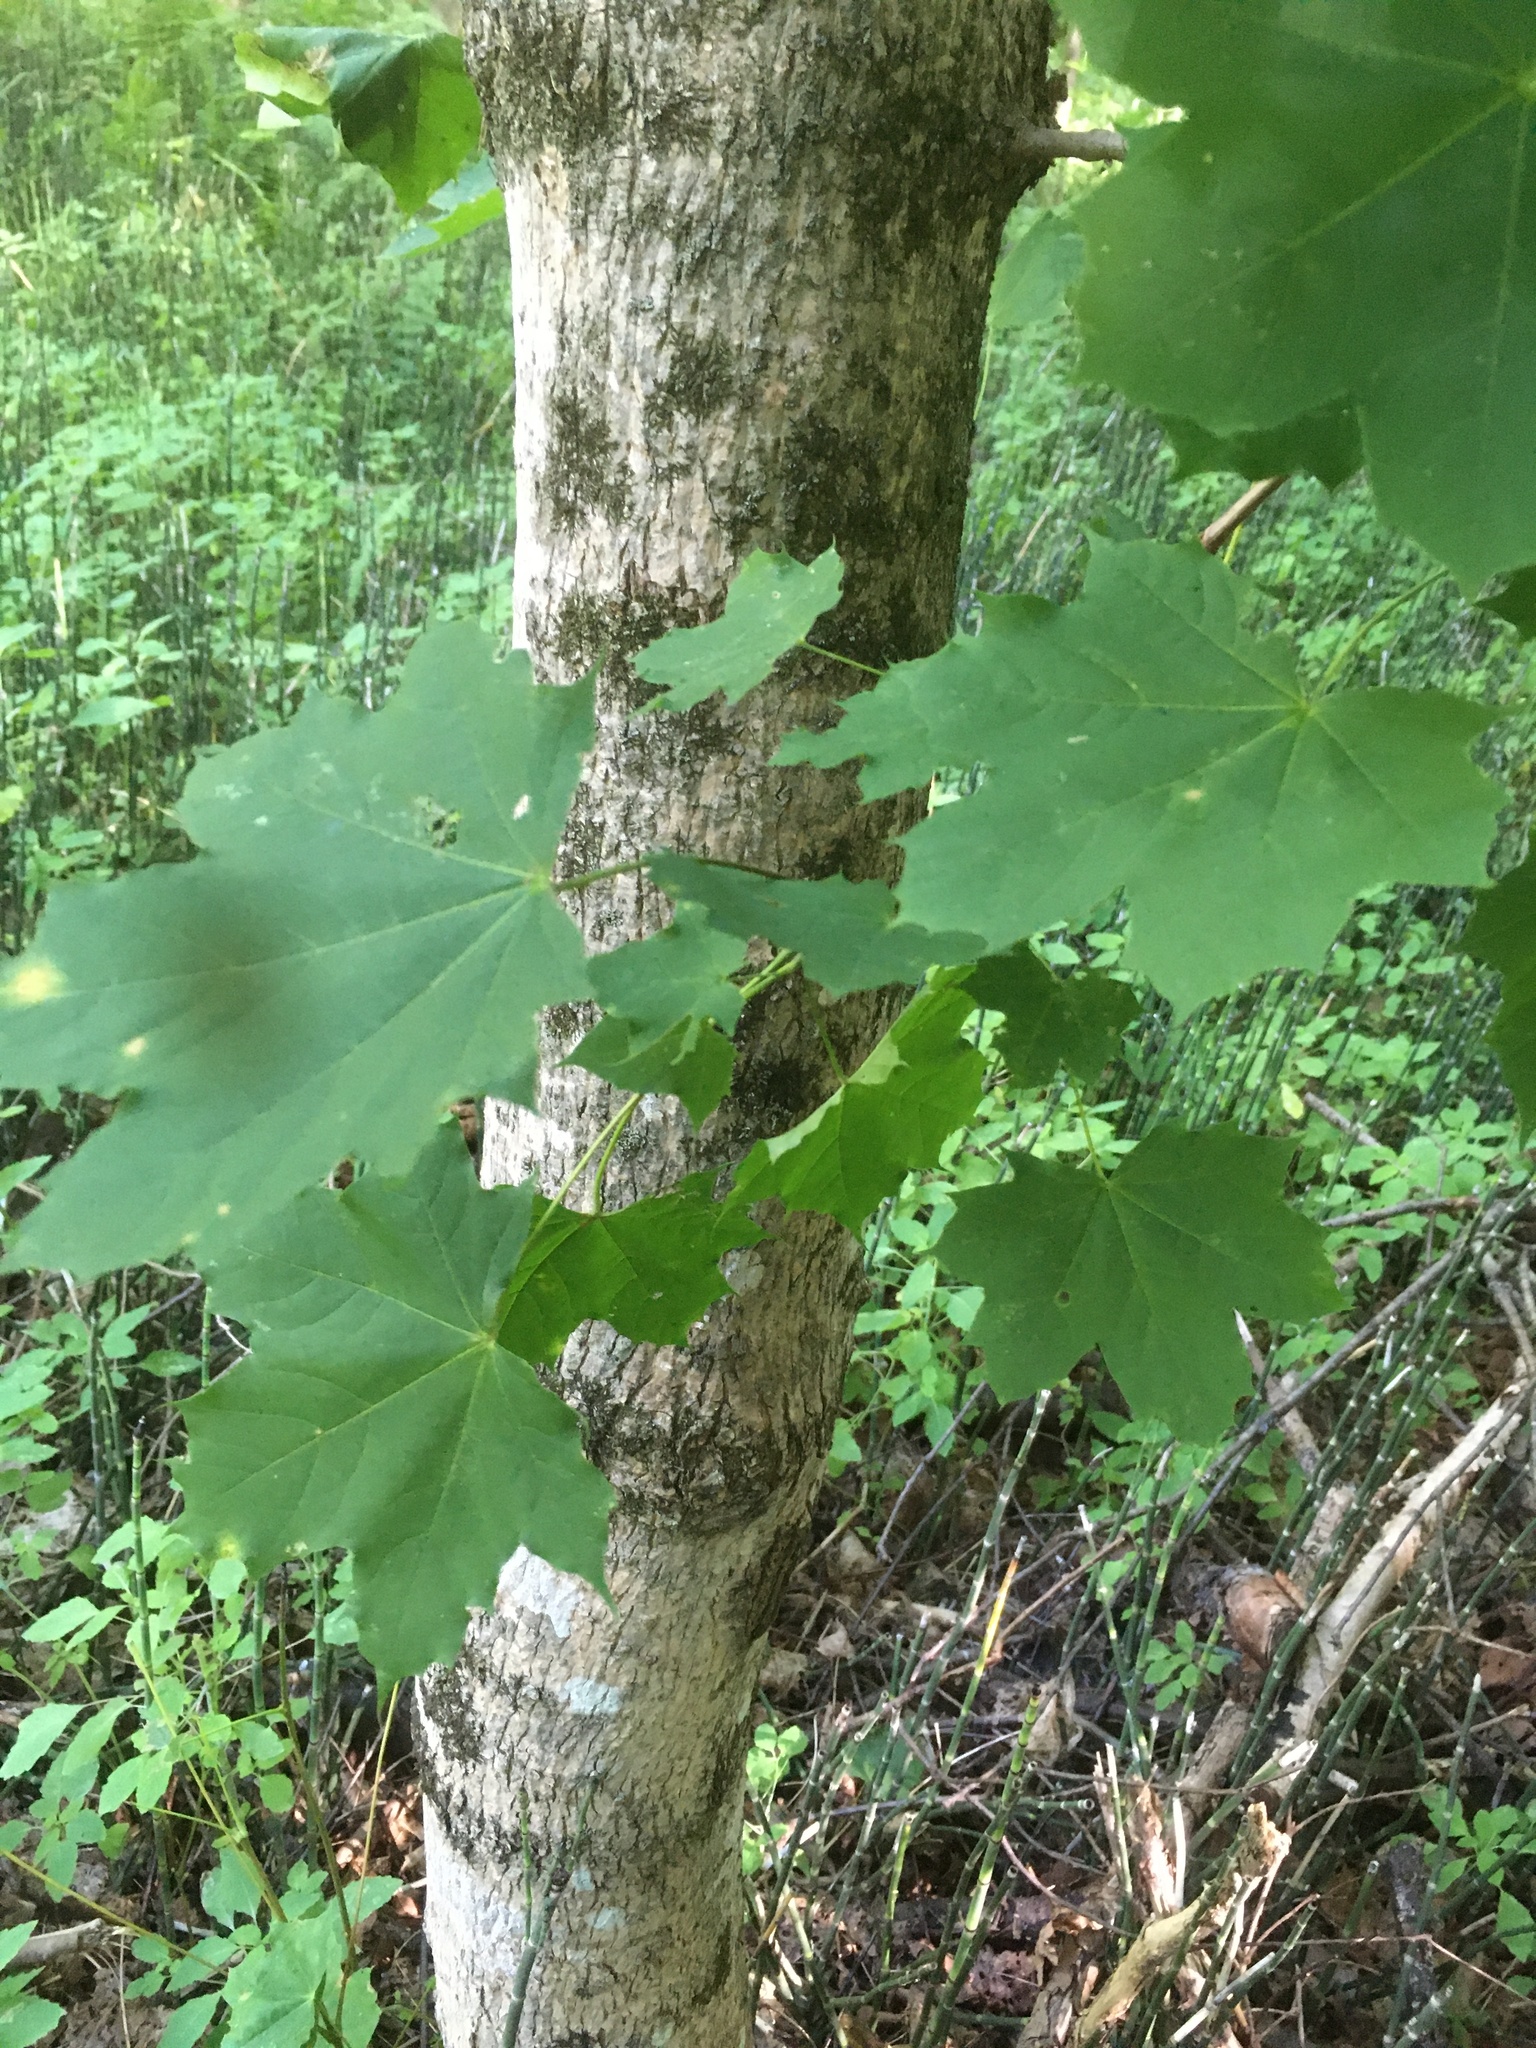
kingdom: Plantae
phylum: Tracheophyta
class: Magnoliopsida
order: Sapindales
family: Sapindaceae
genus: Acer
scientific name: Acer platanoides
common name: Norway maple
